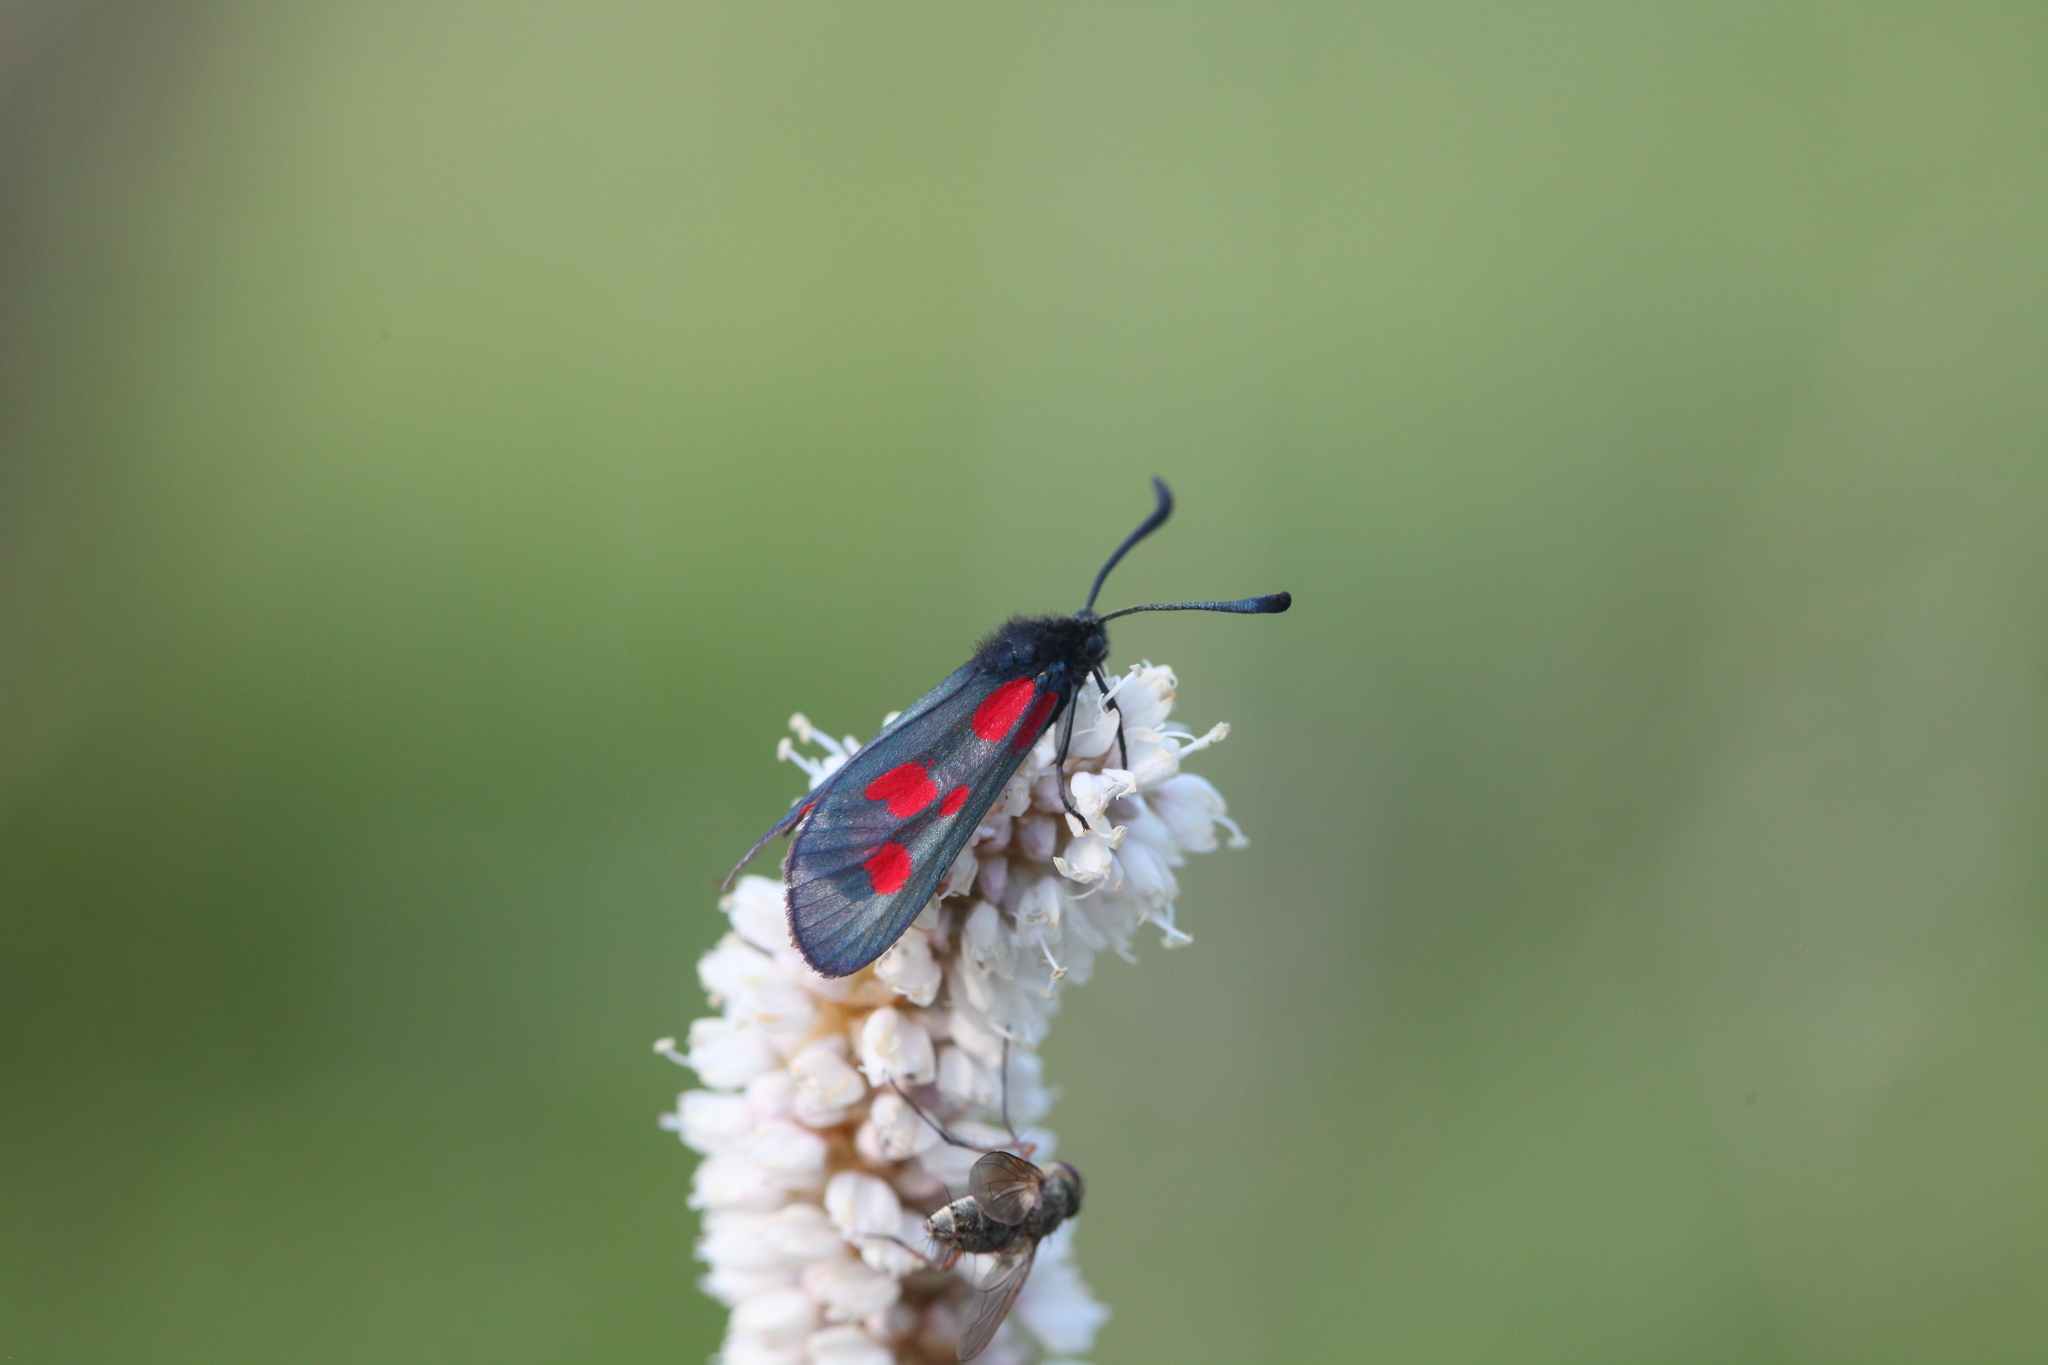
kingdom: Animalia
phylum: Arthropoda
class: Insecta
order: Lepidoptera
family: Zygaenidae
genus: Zygaena
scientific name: Zygaena viciae
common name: New forest burnet
